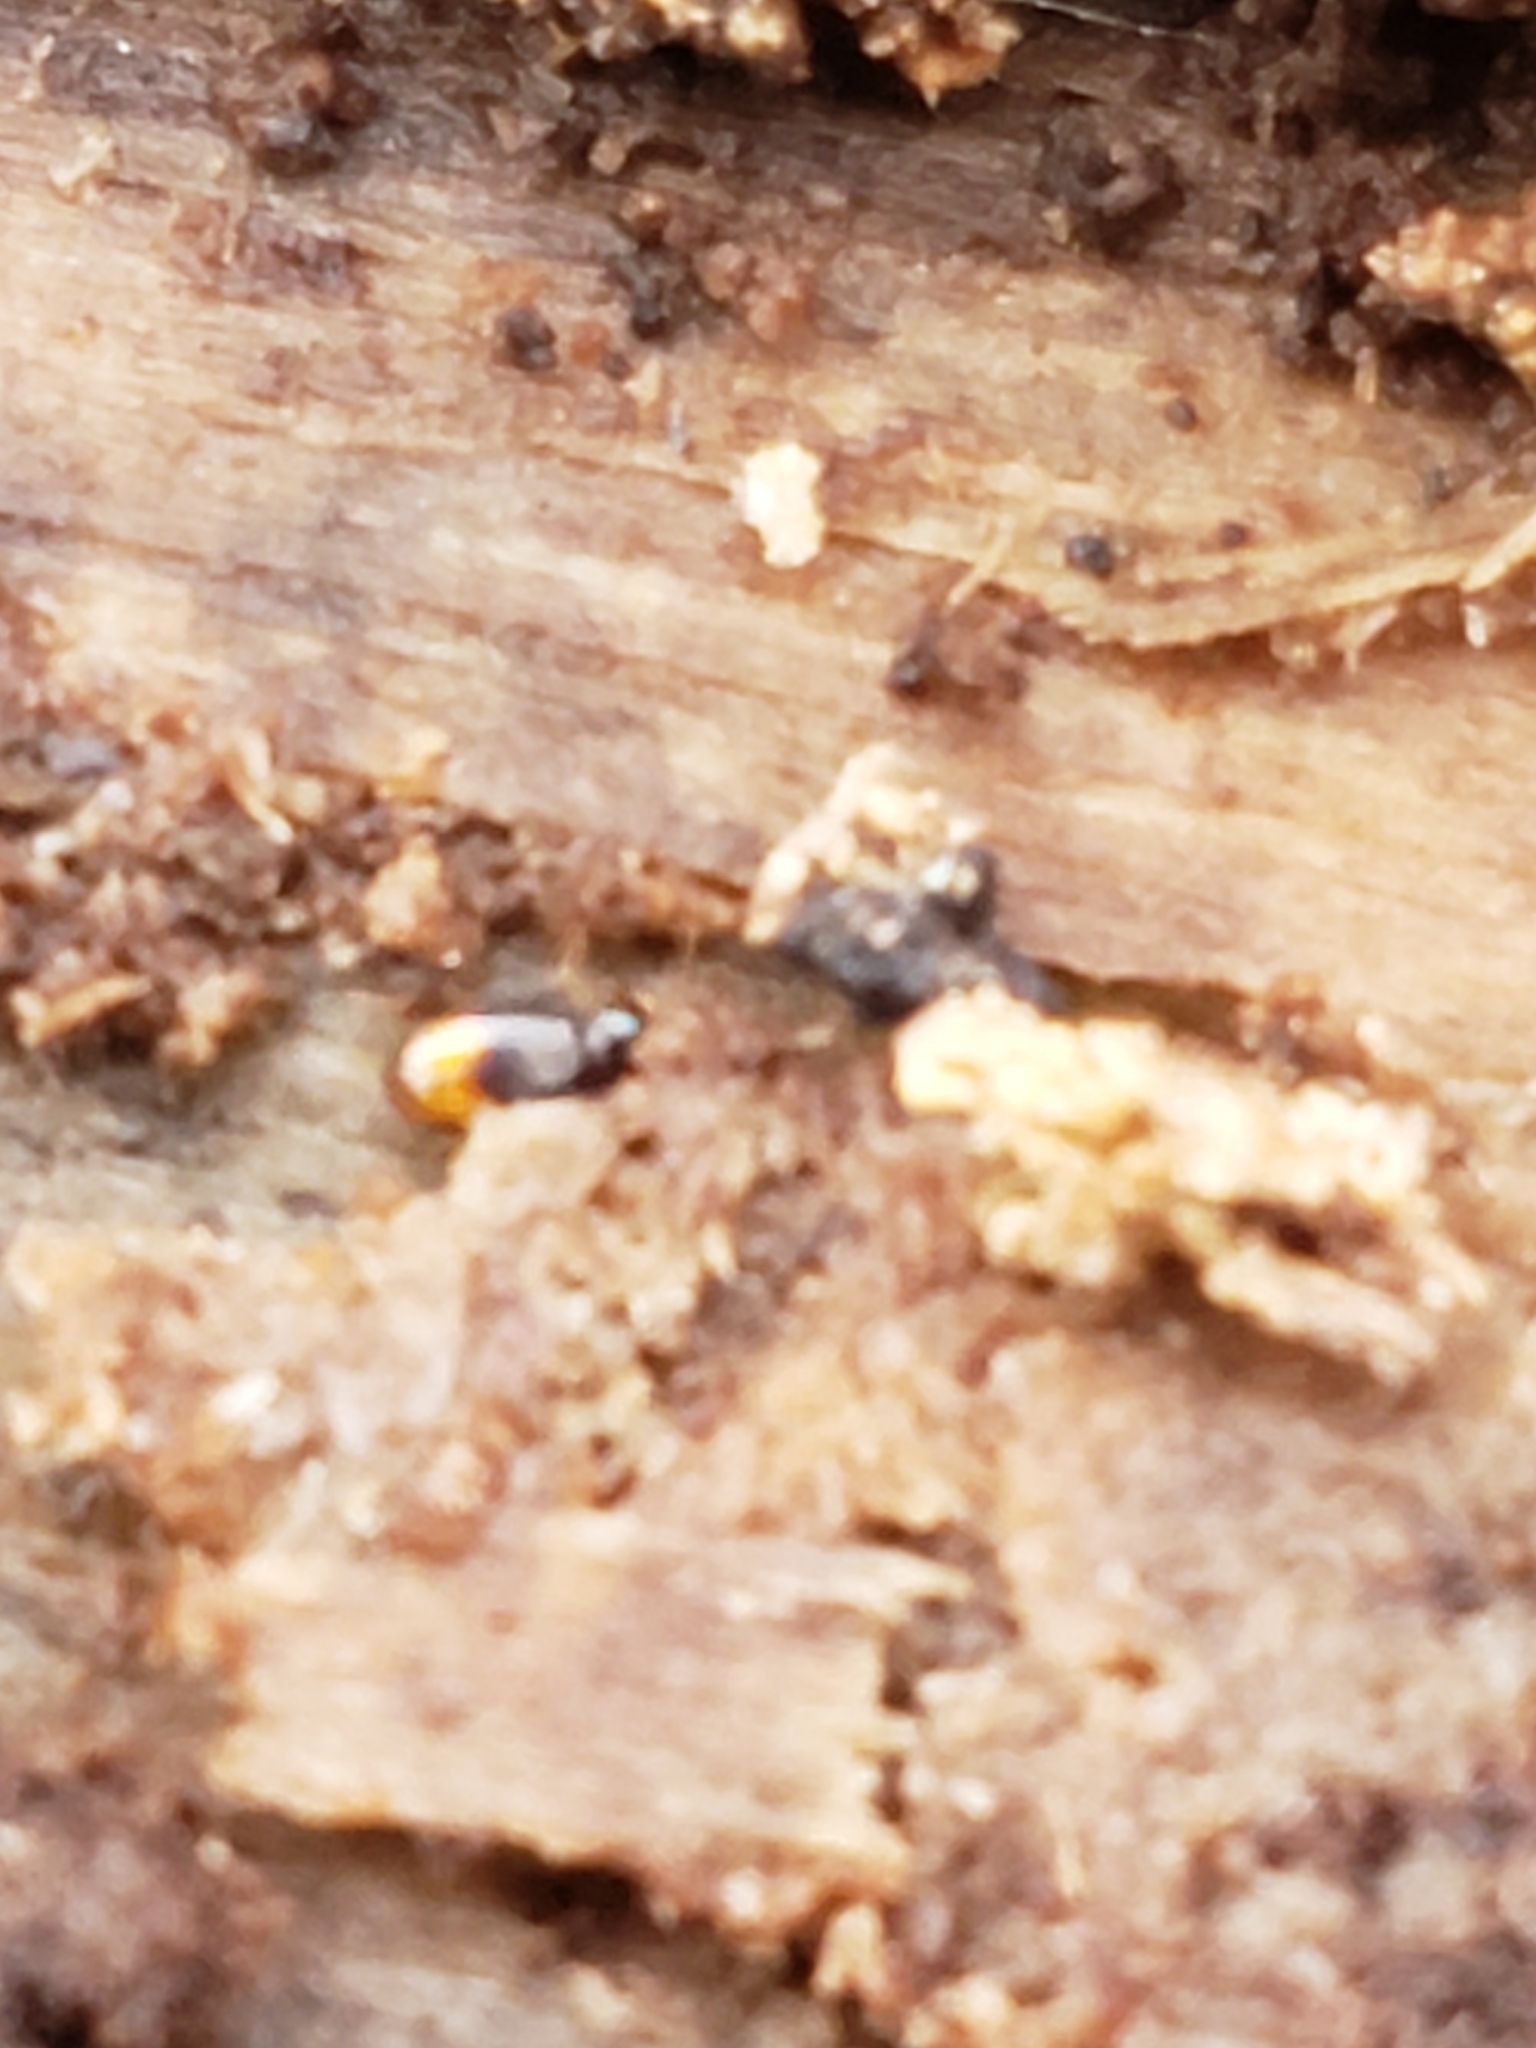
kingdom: Animalia
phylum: Arthropoda
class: Insecta
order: Coleoptera
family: Carabidae
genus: Mioptachys
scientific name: Mioptachys flavicauda
